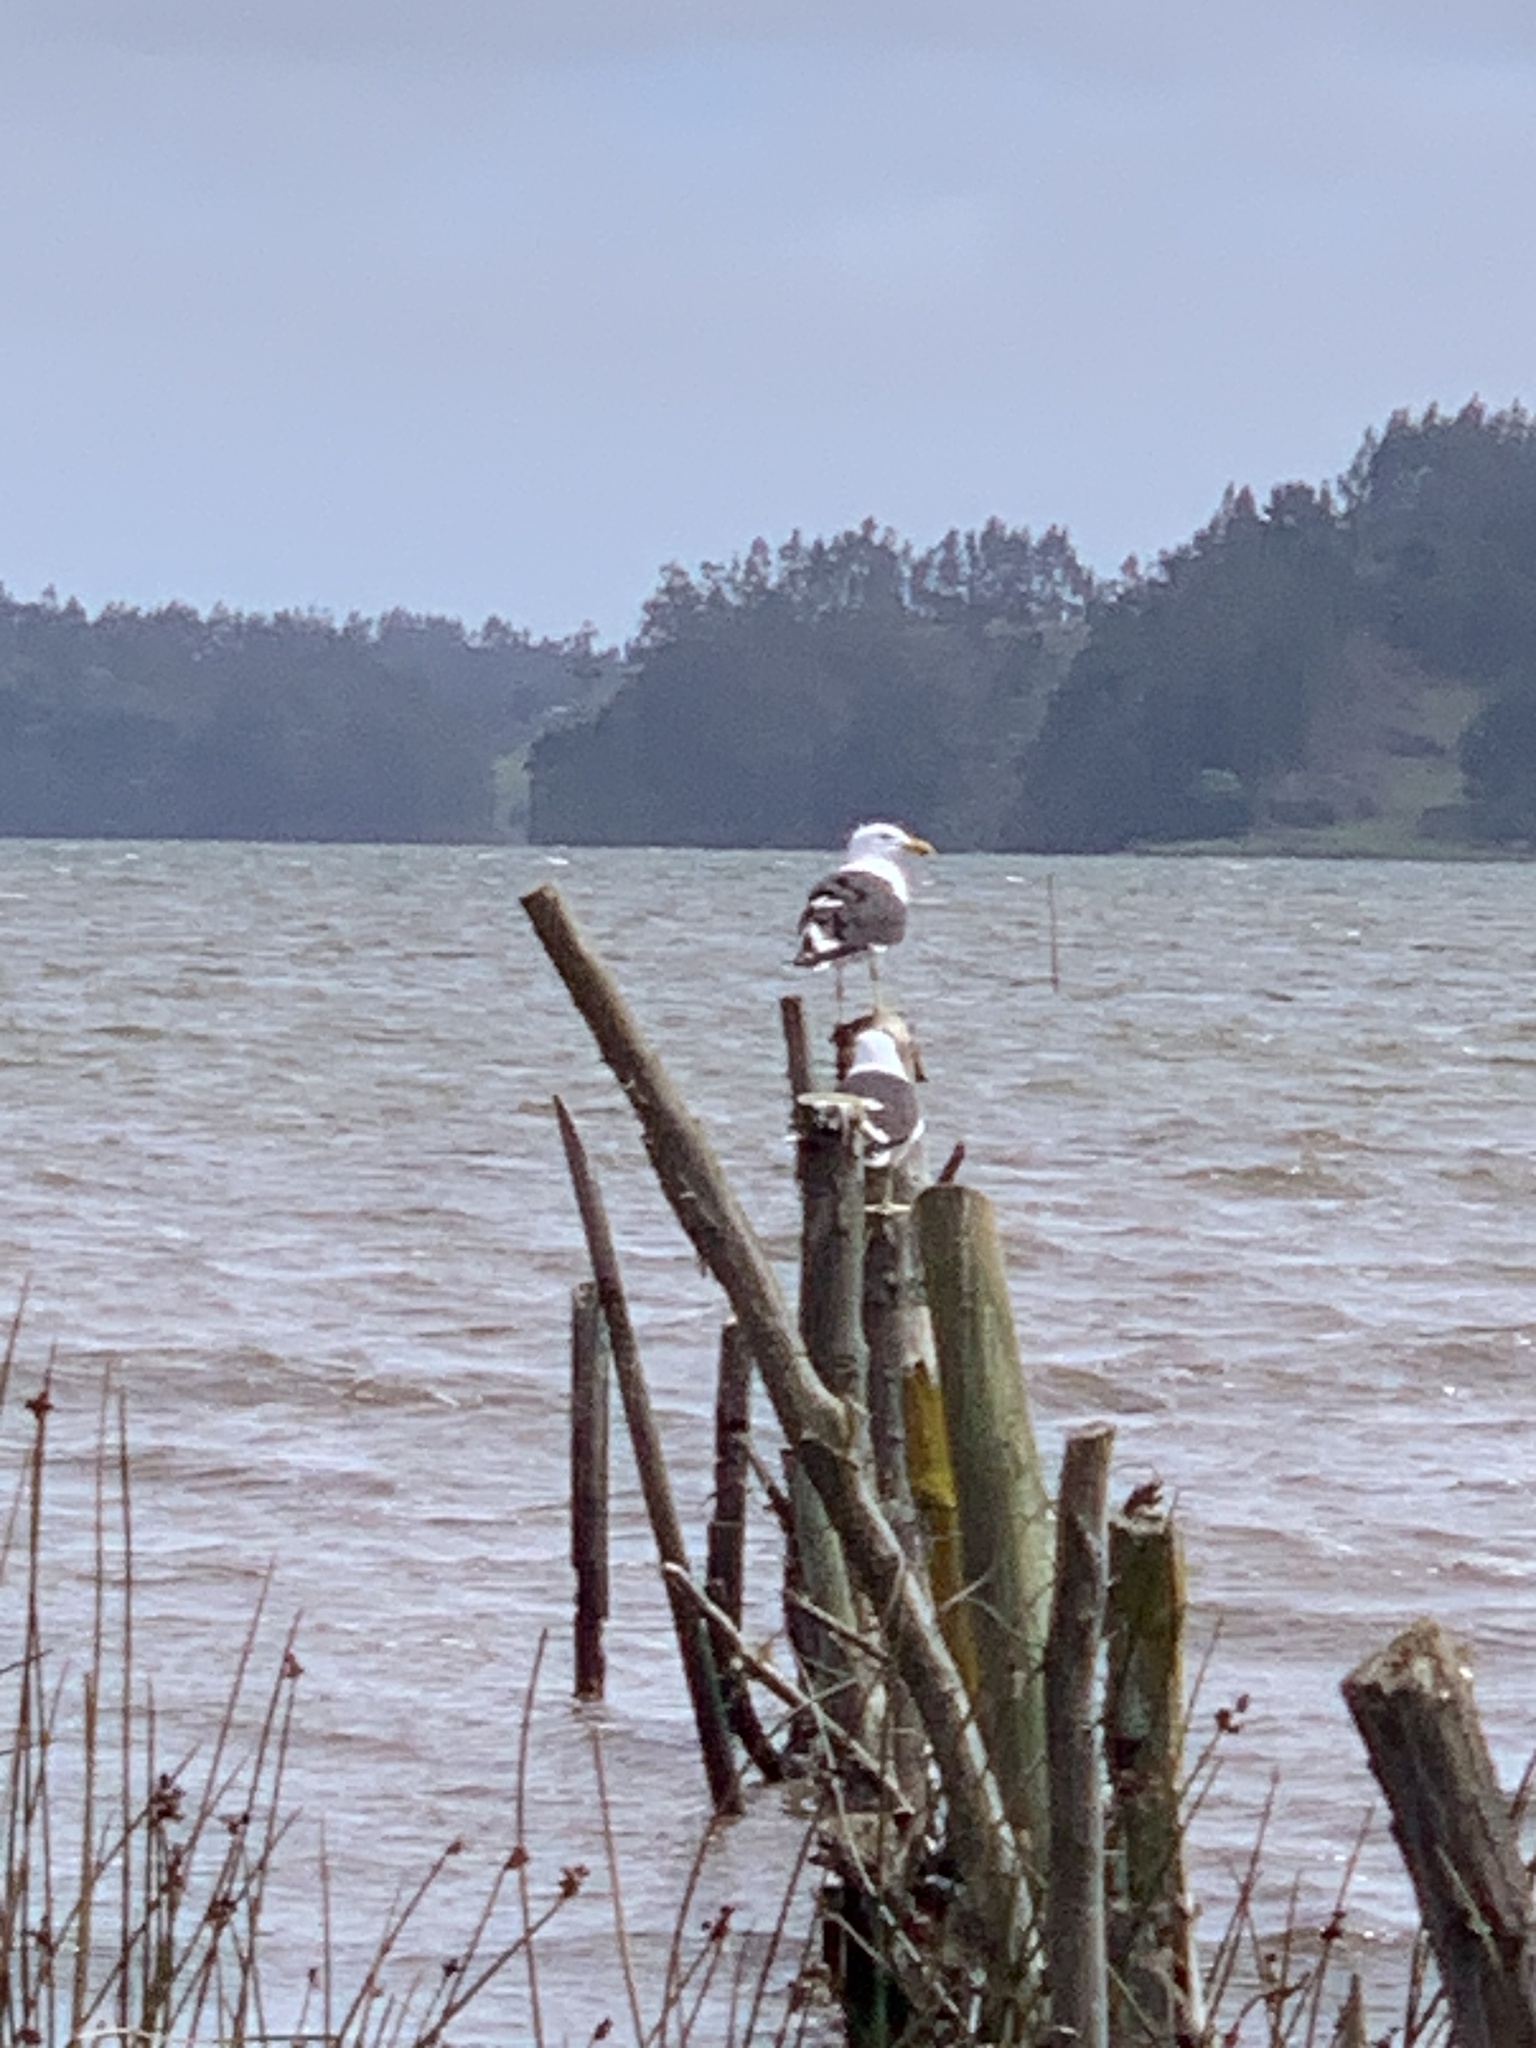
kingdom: Animalia
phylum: Chordata
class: Aves
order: Charadriiformes
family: Laridae
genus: Larus
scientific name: Larus dominicanus
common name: Kelp gull
